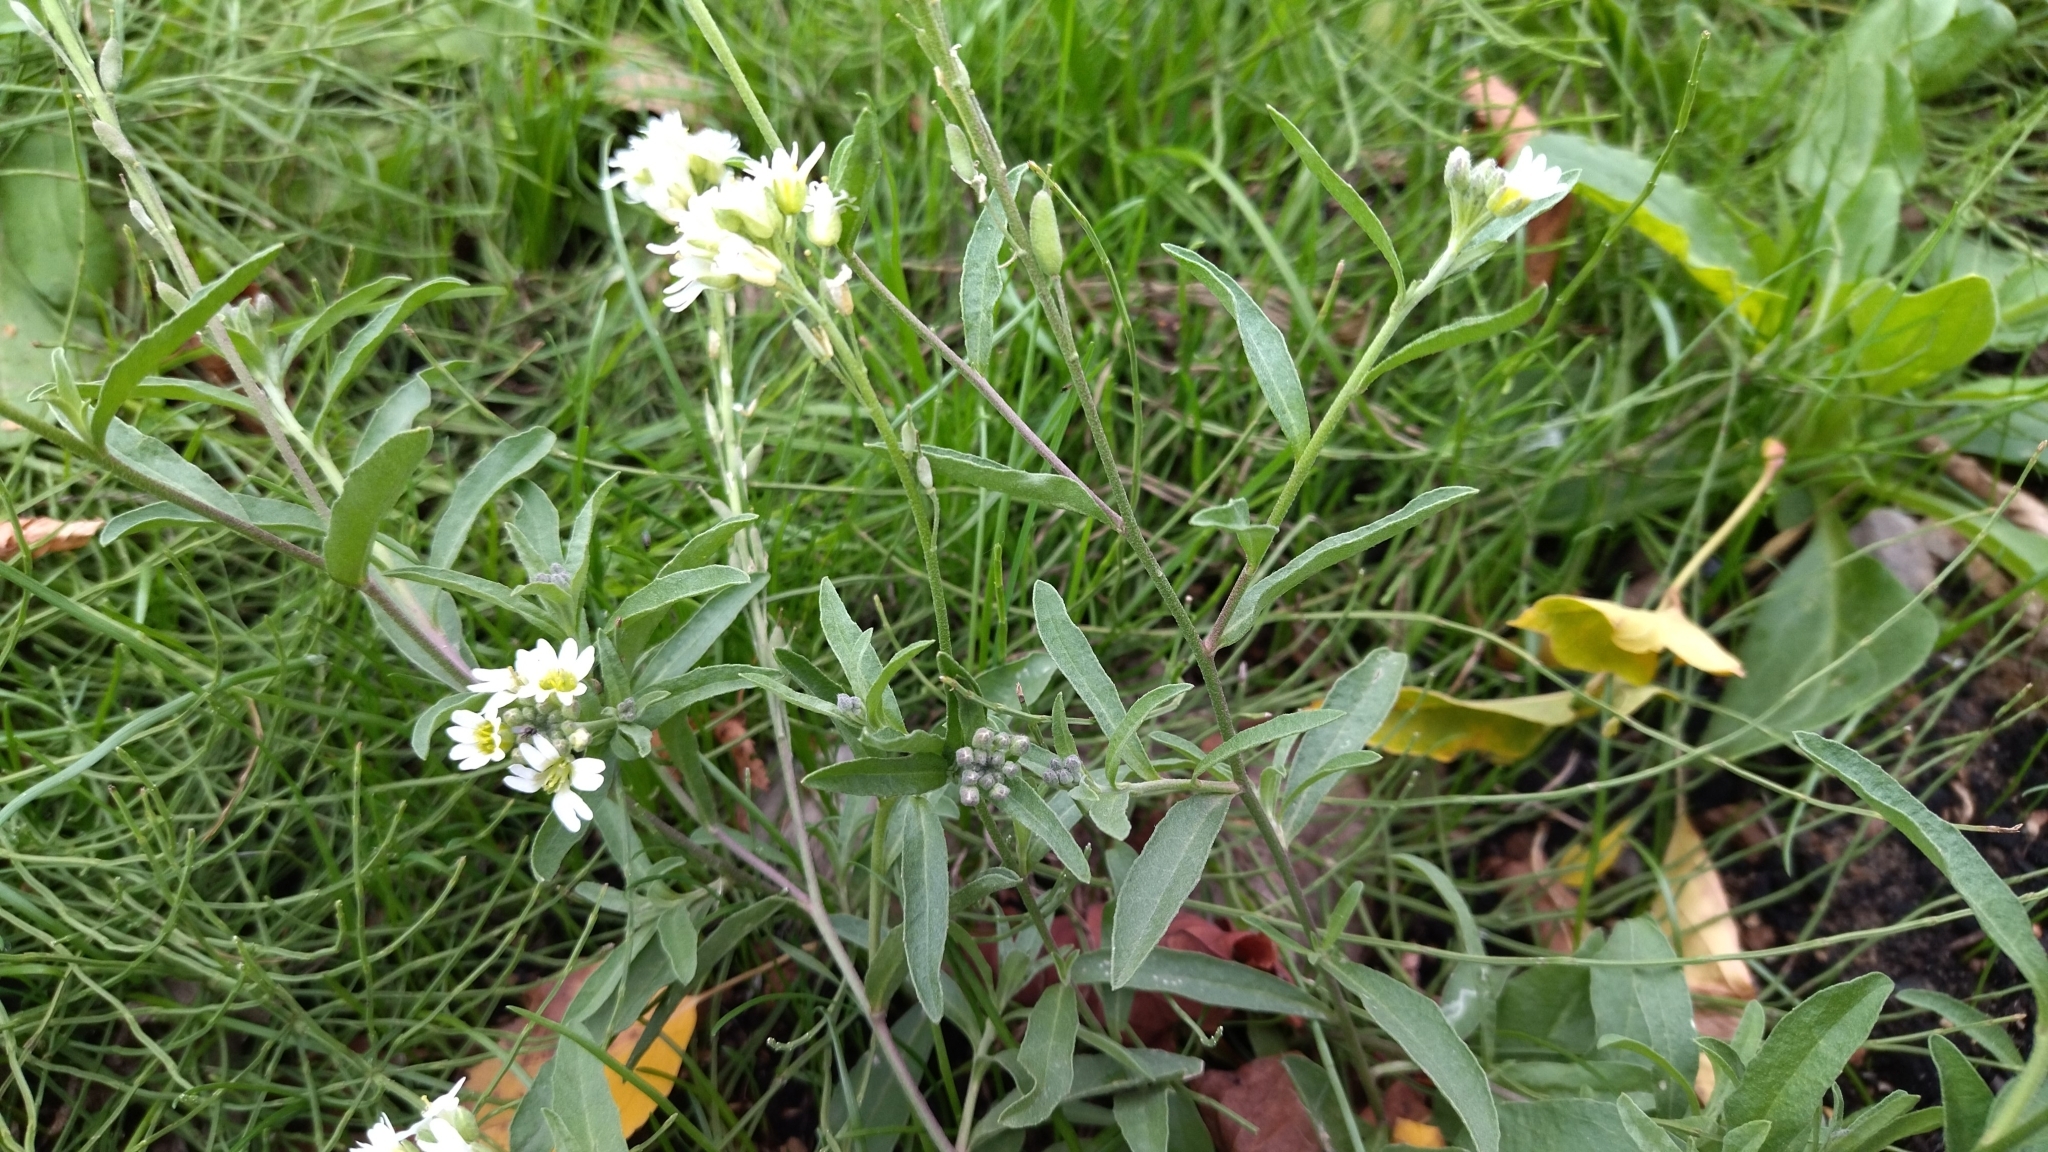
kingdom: Plantae
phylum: Tracheophyta
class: Magnoliopsida
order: Brassicales
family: Brassicaceae
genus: Berteroa
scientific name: Berteroa incana
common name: Hoary alison
